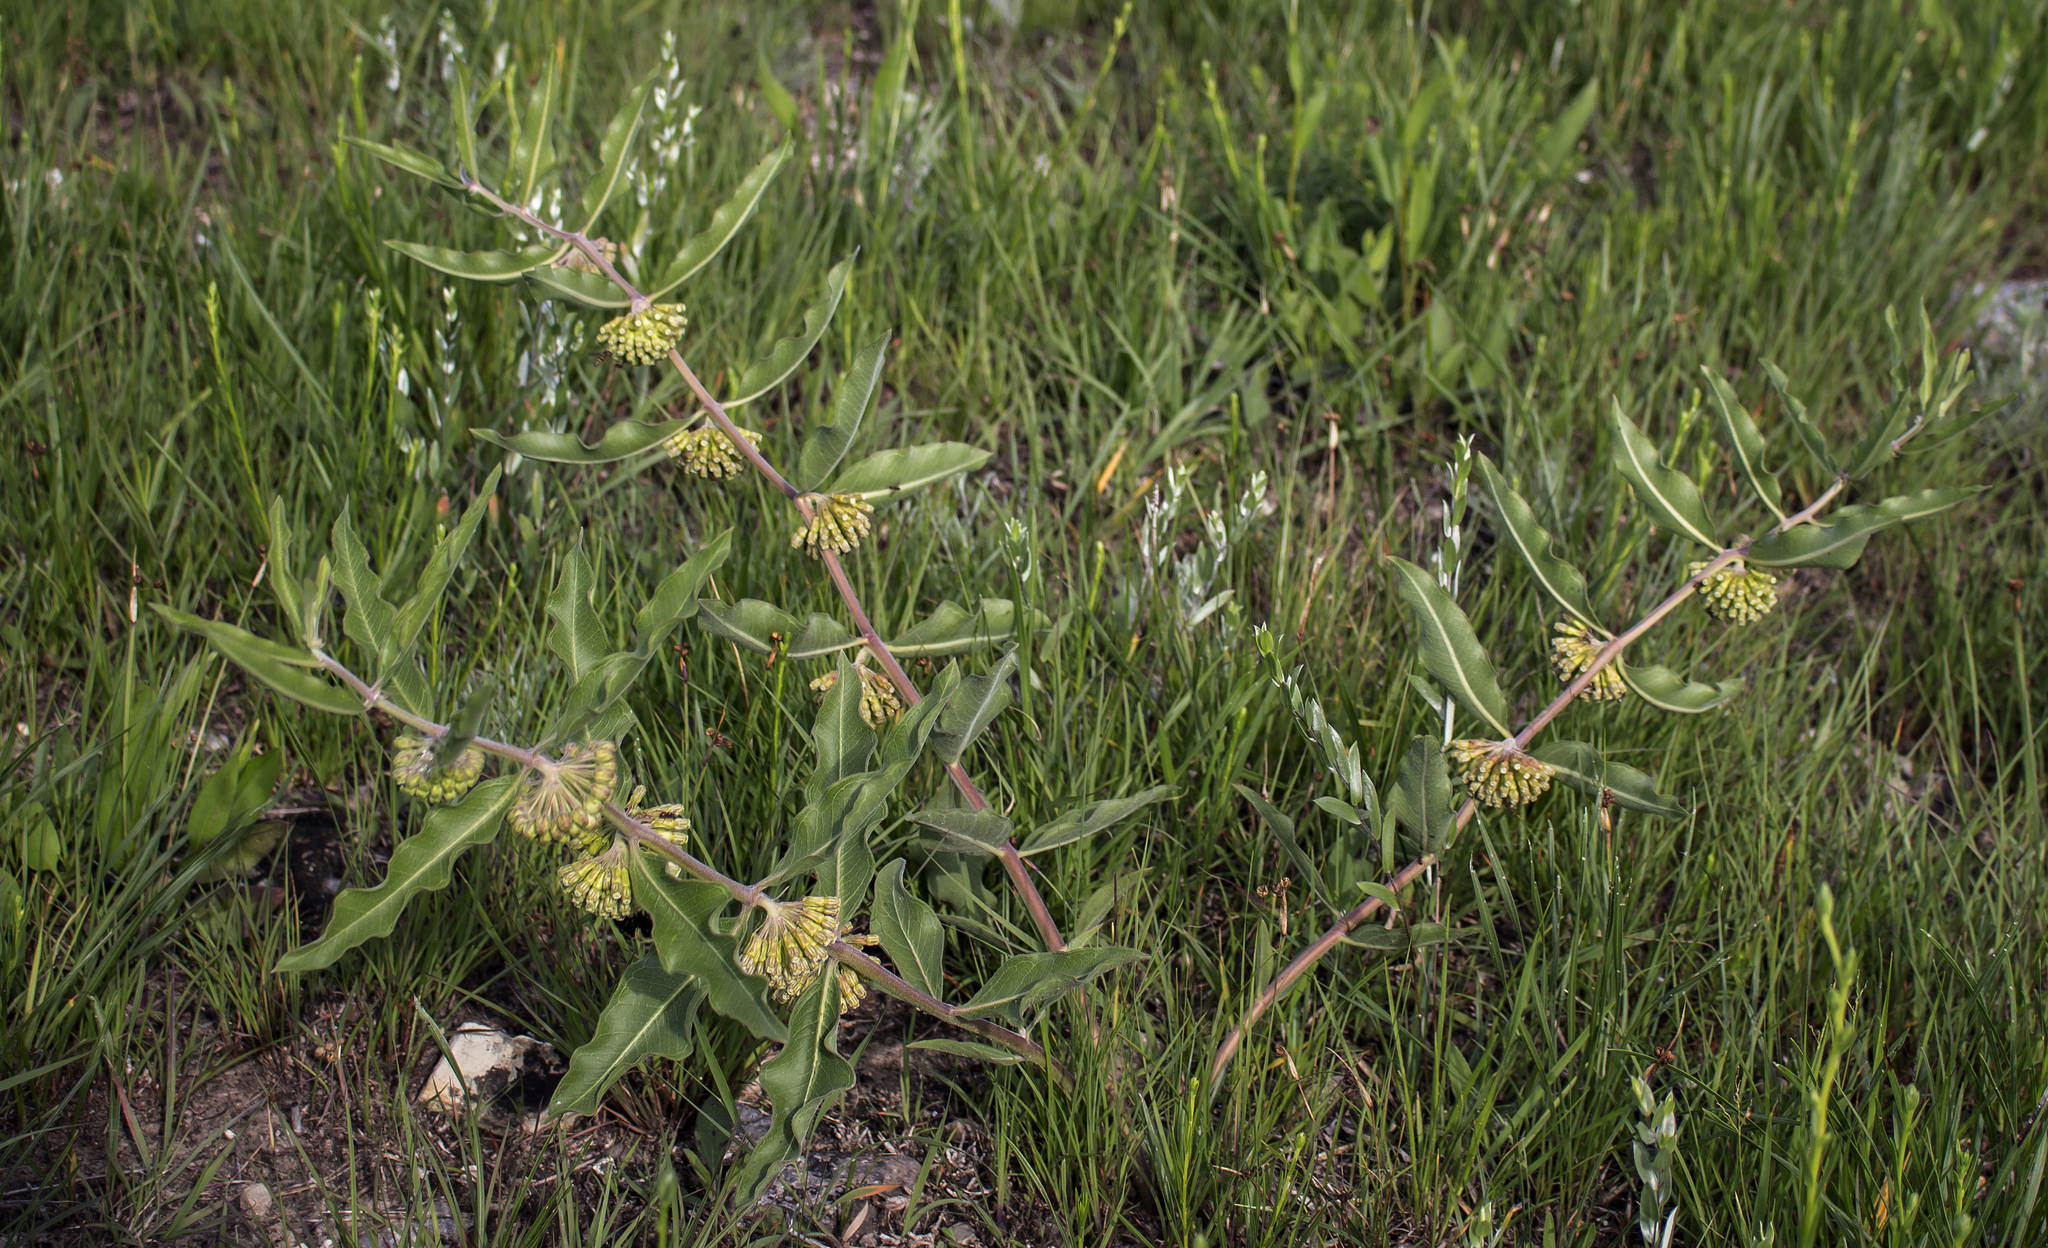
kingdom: Plantae
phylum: Tracheophyta
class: Magnoliopsida
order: Gentianales
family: Apocynaceae
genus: Asclepias
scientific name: Asclepias viridiflora
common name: Green comet milkweed
